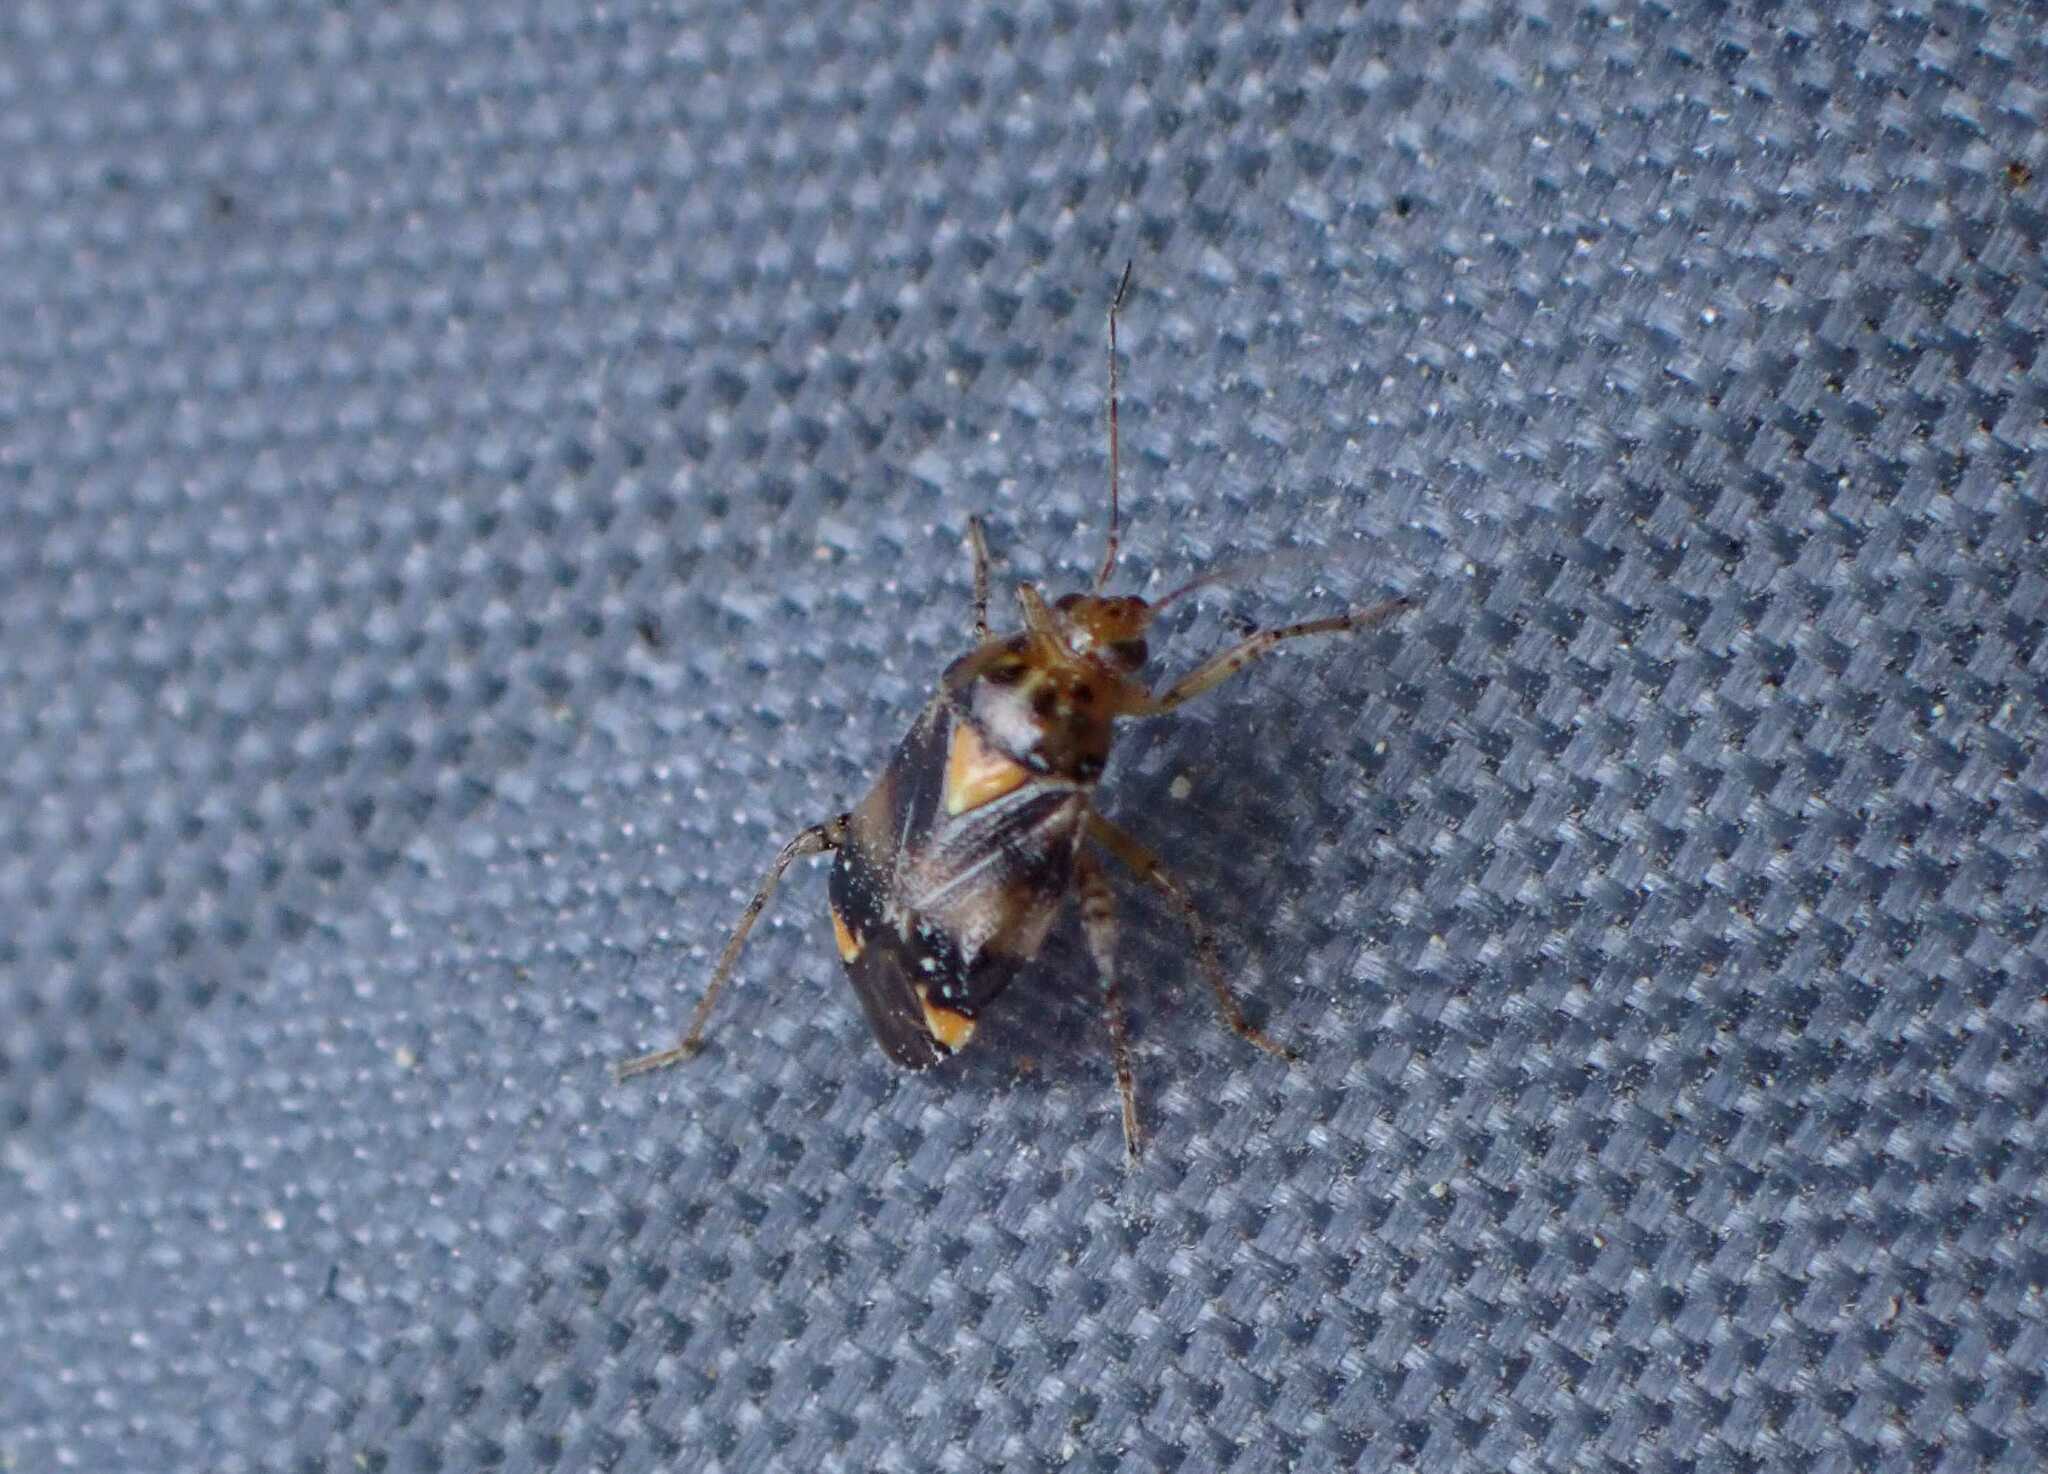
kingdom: Animalia
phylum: Arthropoda
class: Insecta
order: Hemiptera
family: Miridae
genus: Liocoris
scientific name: Liocoris tripustulatus
